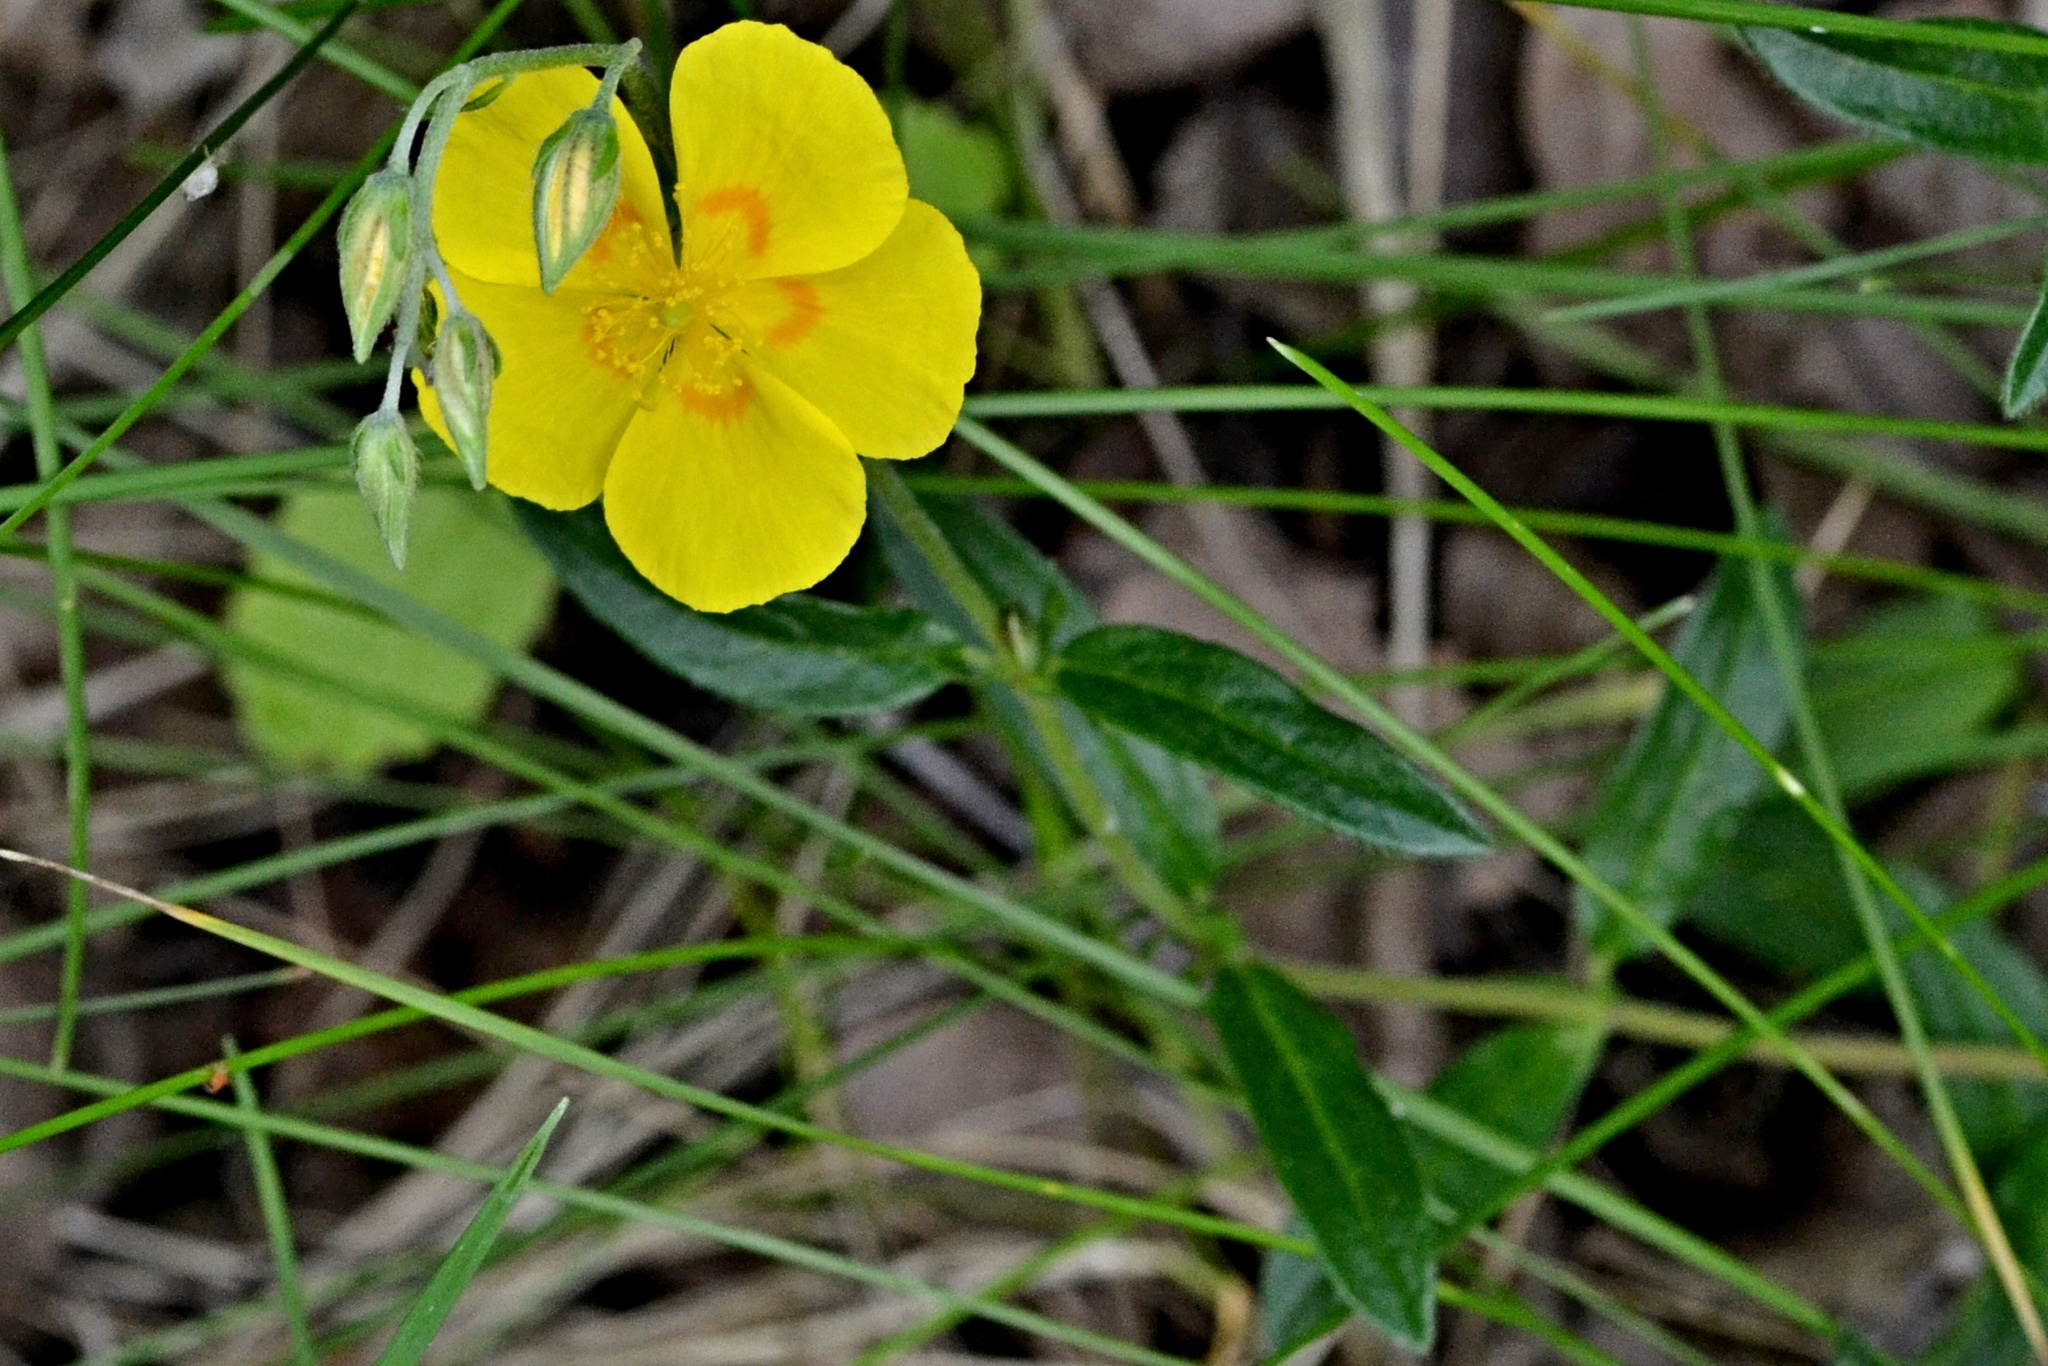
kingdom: Plantae
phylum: Tracheophyta
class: Magnoliopsida
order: Malvales
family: Cistaceae
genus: Helianthemum
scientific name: Helianthemum nummularium
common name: Common rock-rose
